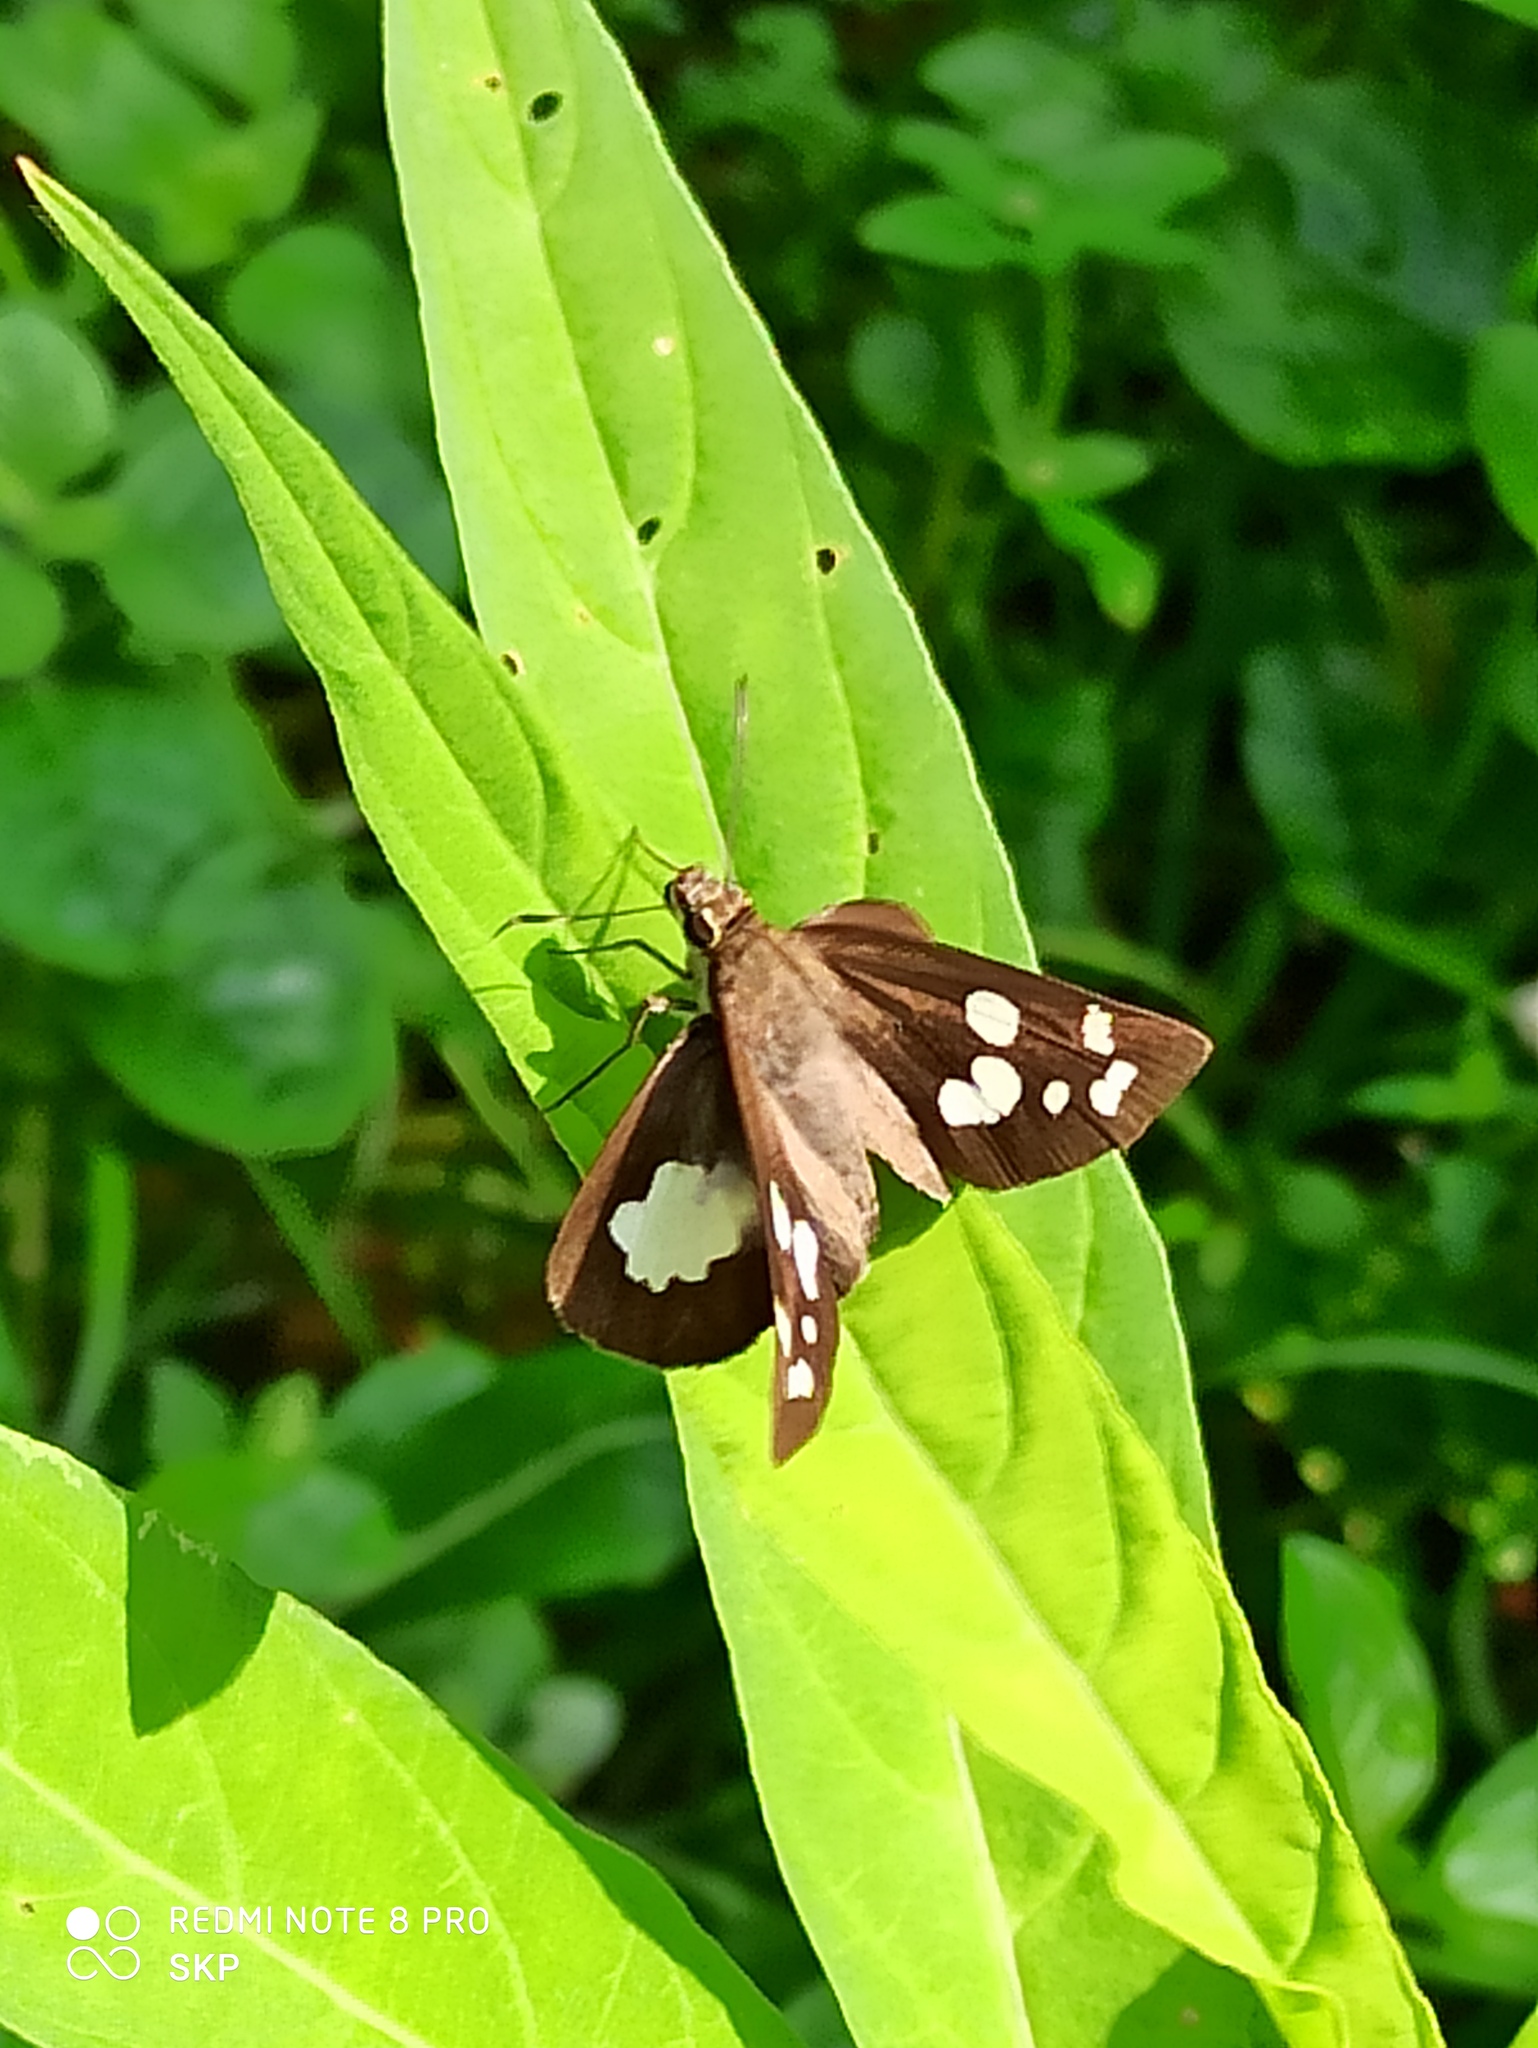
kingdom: Animalia
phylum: Arthropoda
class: Insecta
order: Lepidoptera
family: Hesperiidae
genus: Udaspes
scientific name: Udaspes folus
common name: Grass demon
